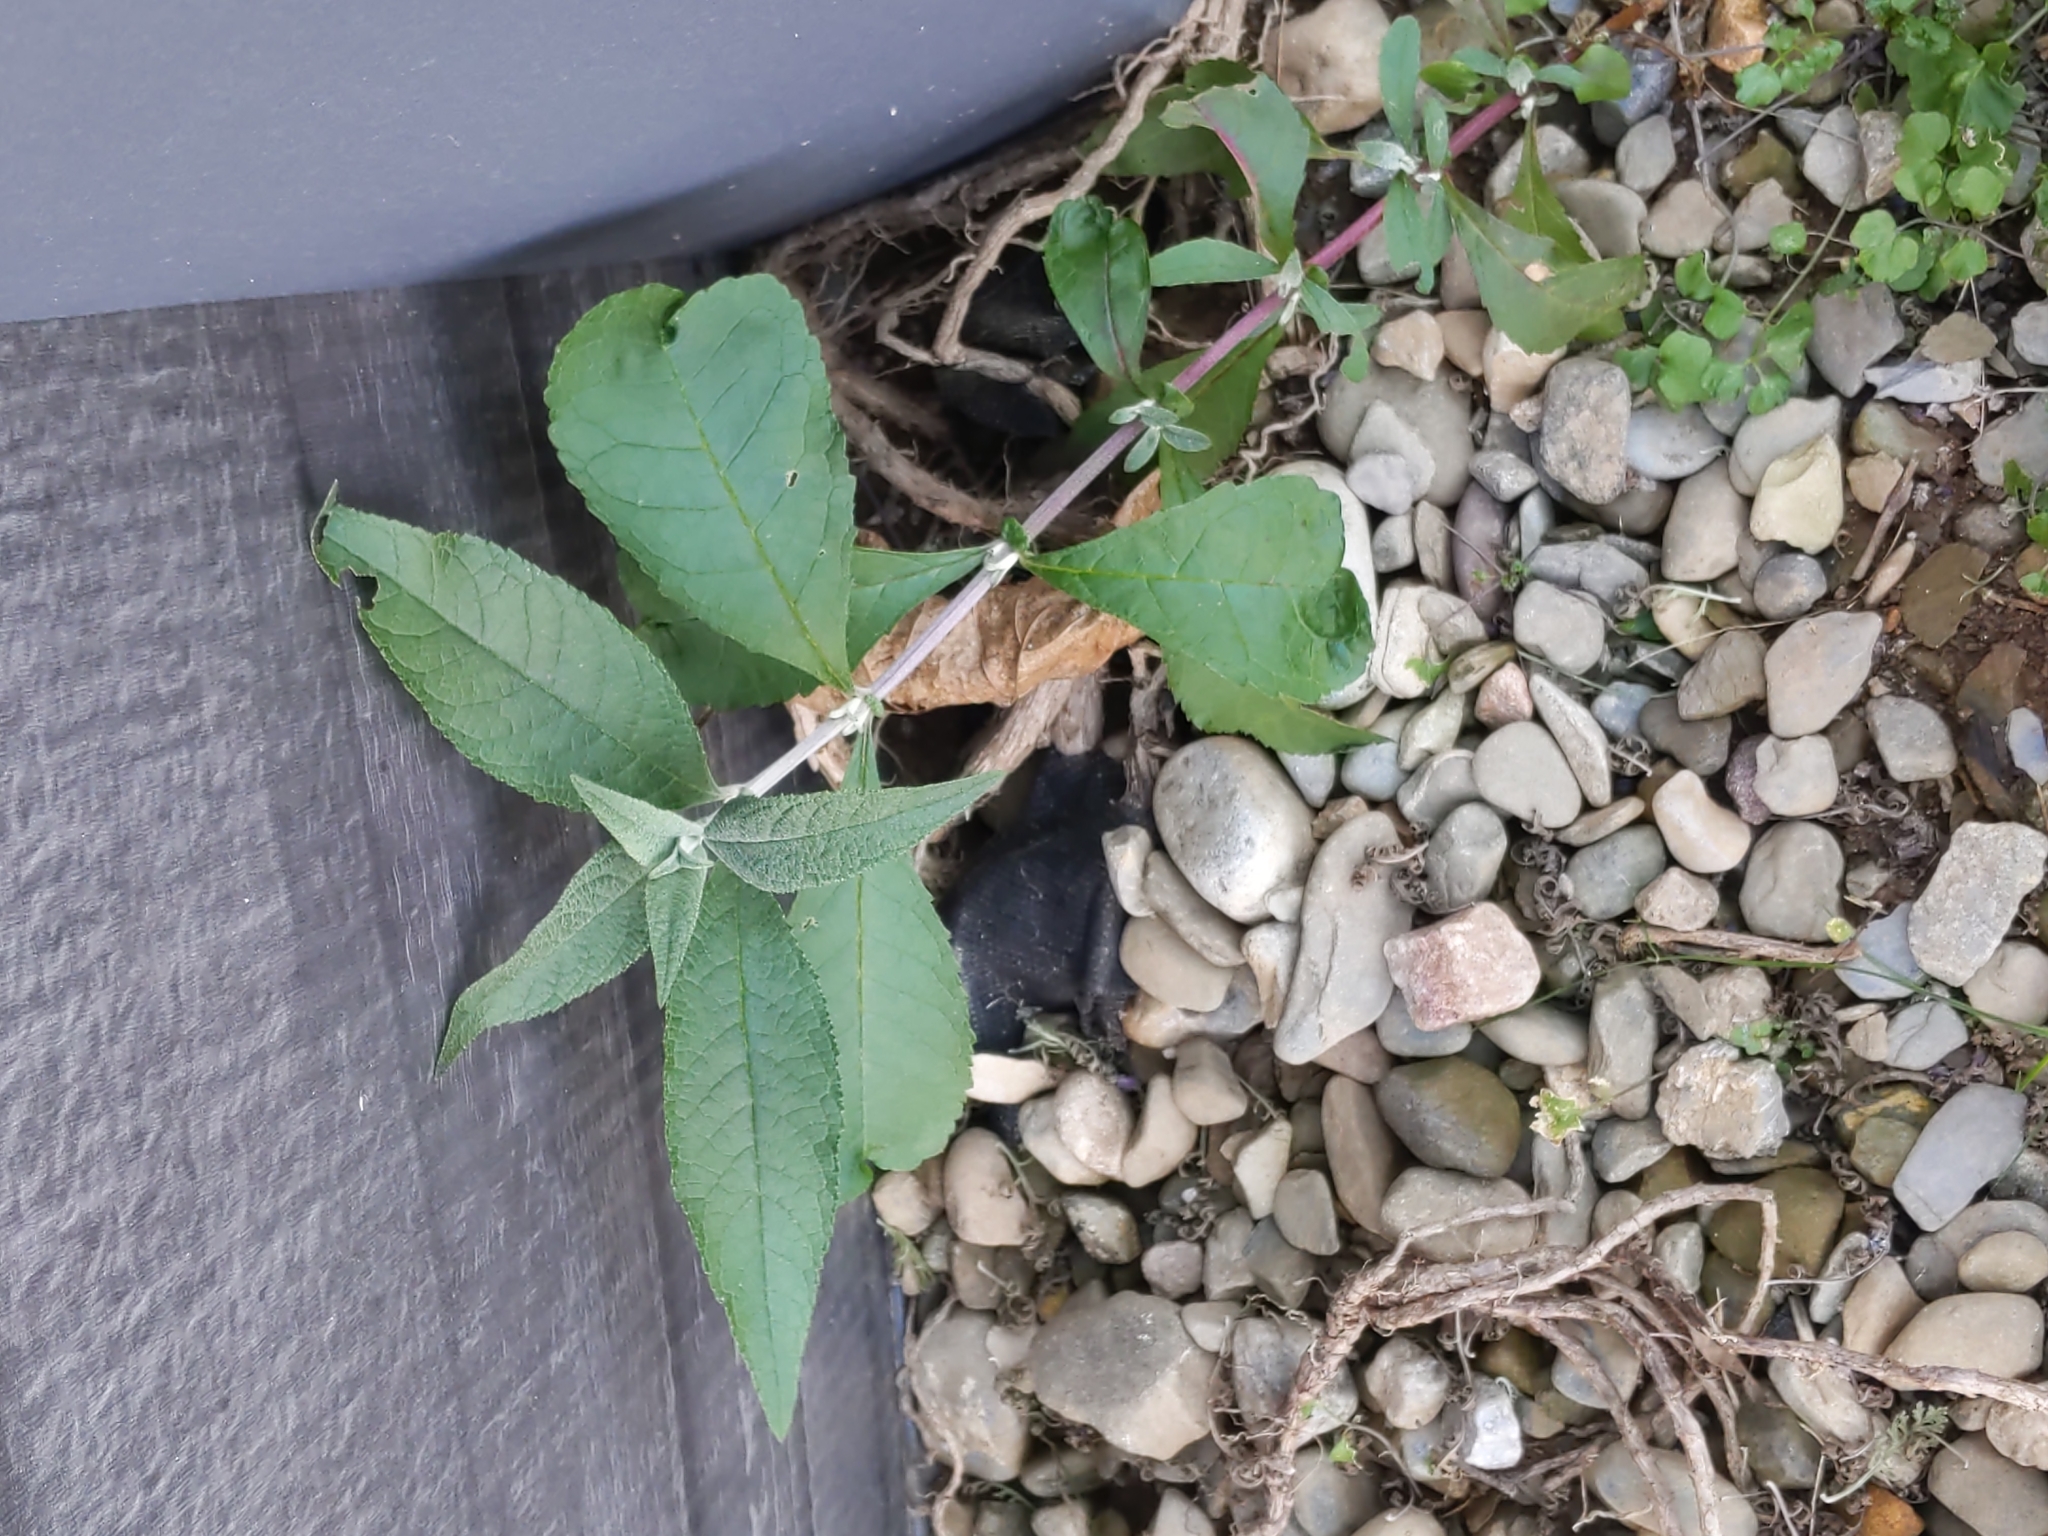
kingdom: Plantae
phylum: Tracheophyta
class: Magnoliopsida
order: Lamiales
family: Scrophulariaceae
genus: Buddleja
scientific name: Buddleja davidii
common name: Butterfly-bush
